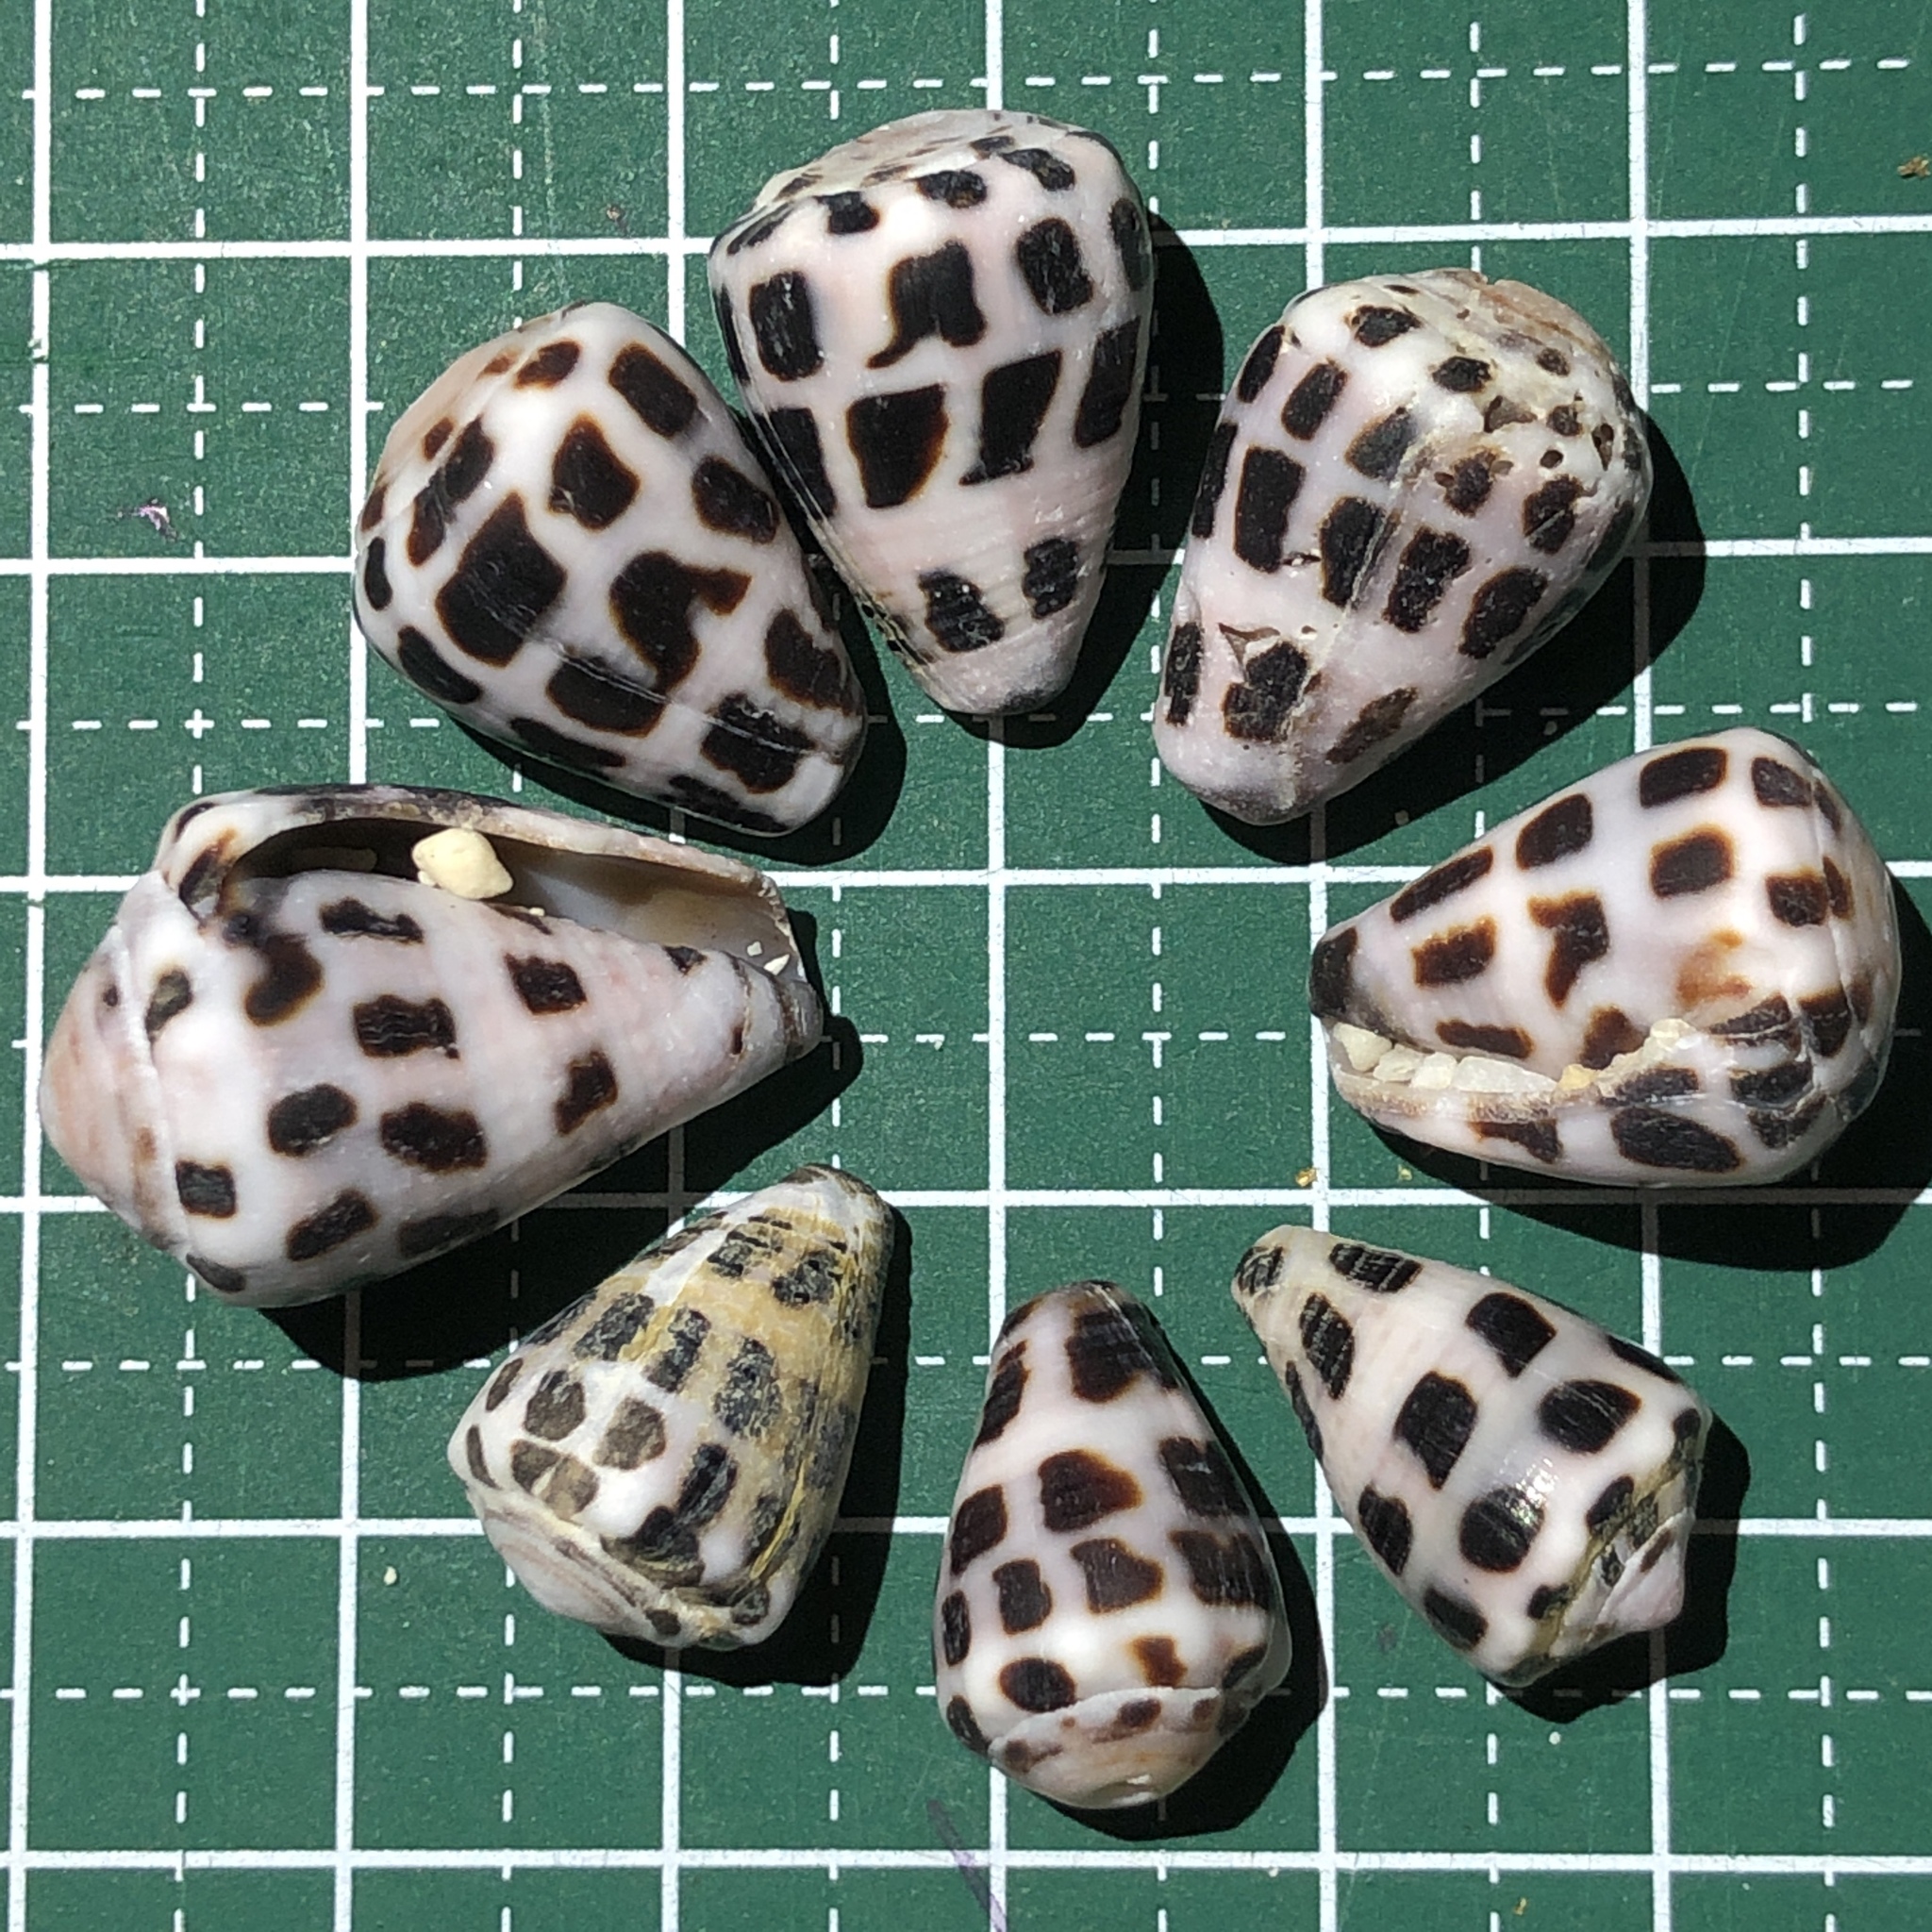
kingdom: Animalia
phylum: Mollusca
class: Gastropoda
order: Neogastropoda
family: Conidae
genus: Conus
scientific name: Conus ebraeus
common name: Hebrew cone
